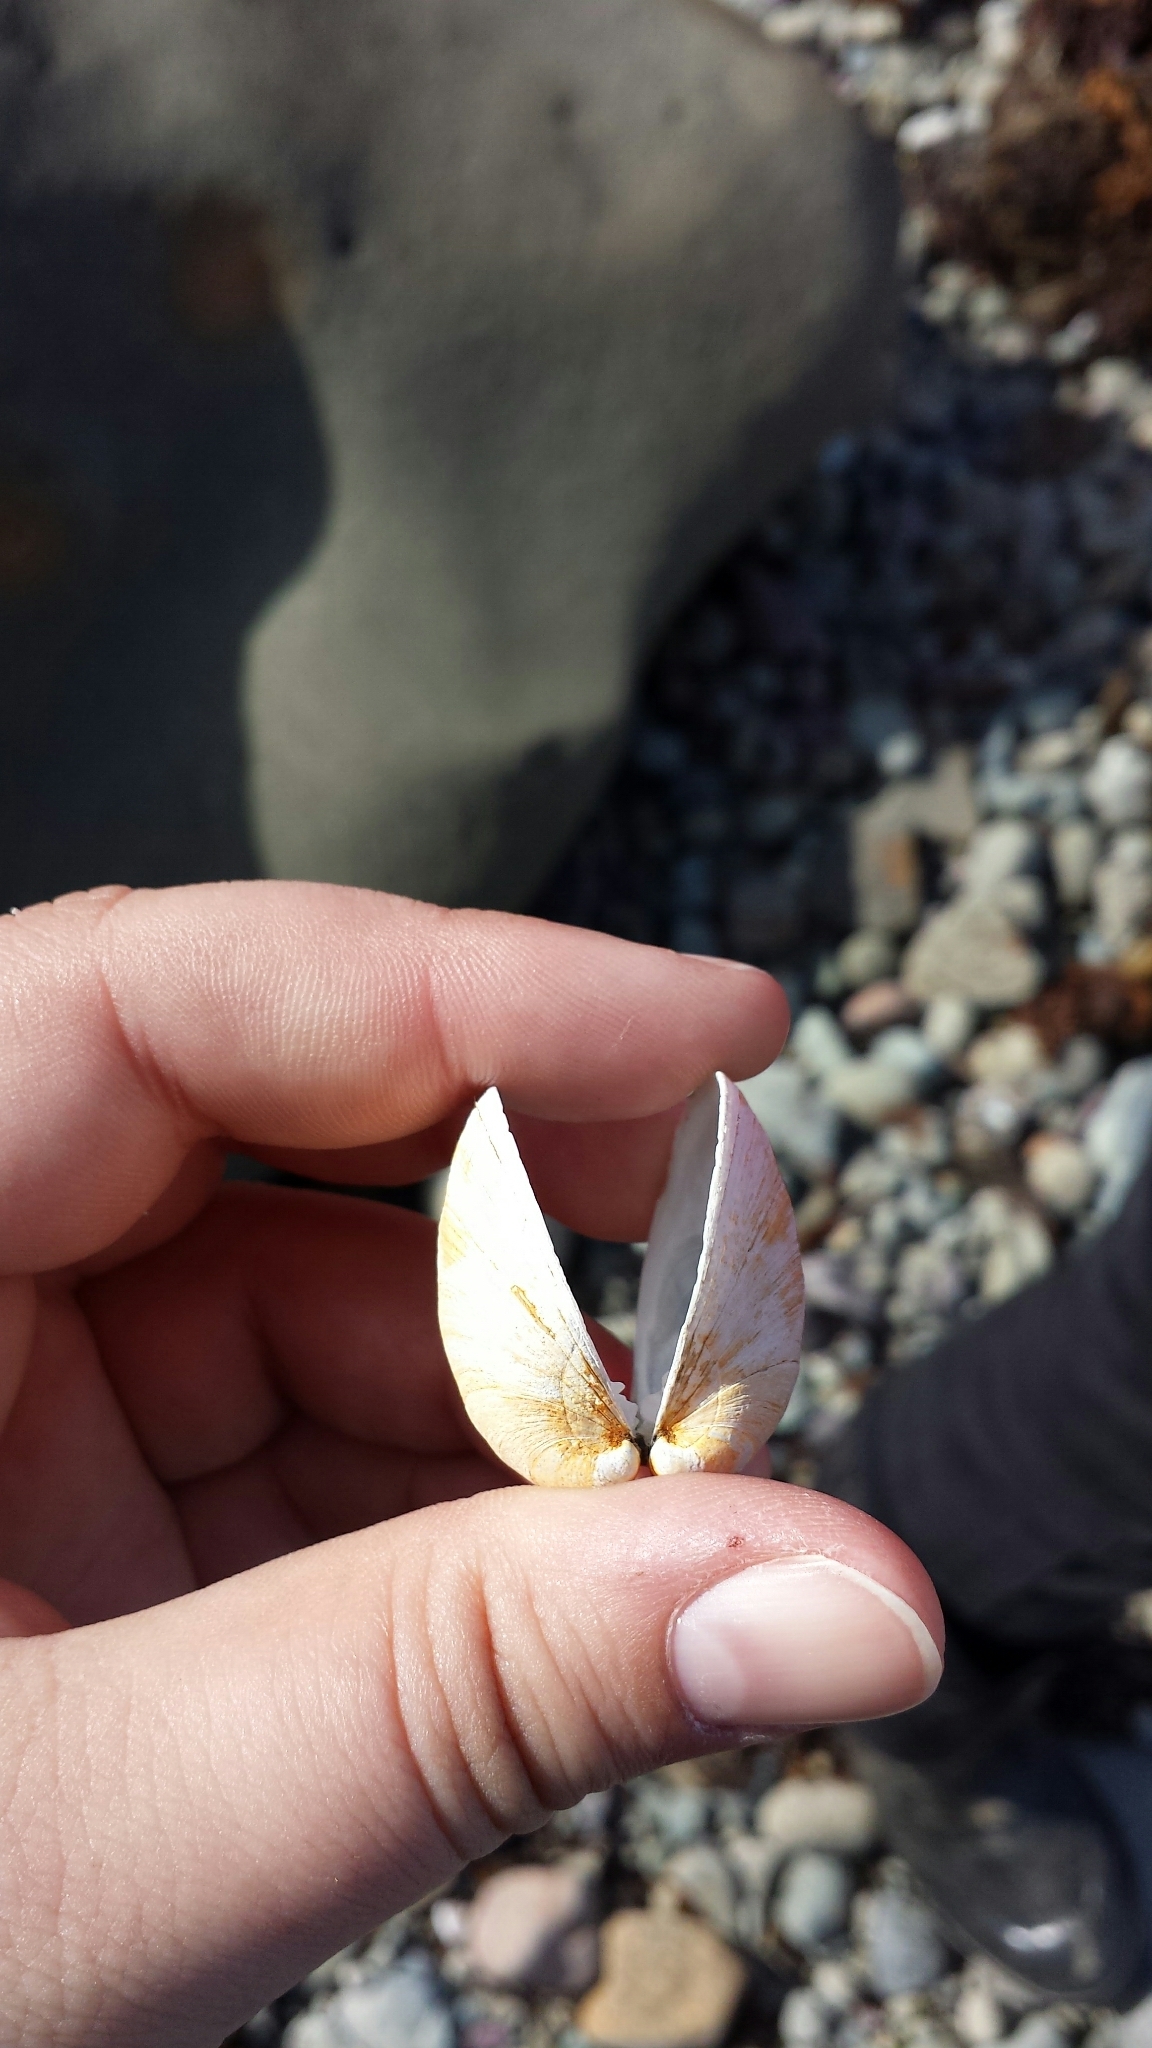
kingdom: Animalia
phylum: Mollusca
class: Bivalvia
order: Venerida
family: Veneridae
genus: Agriopoma
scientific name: Agriopoma morrhuanum
